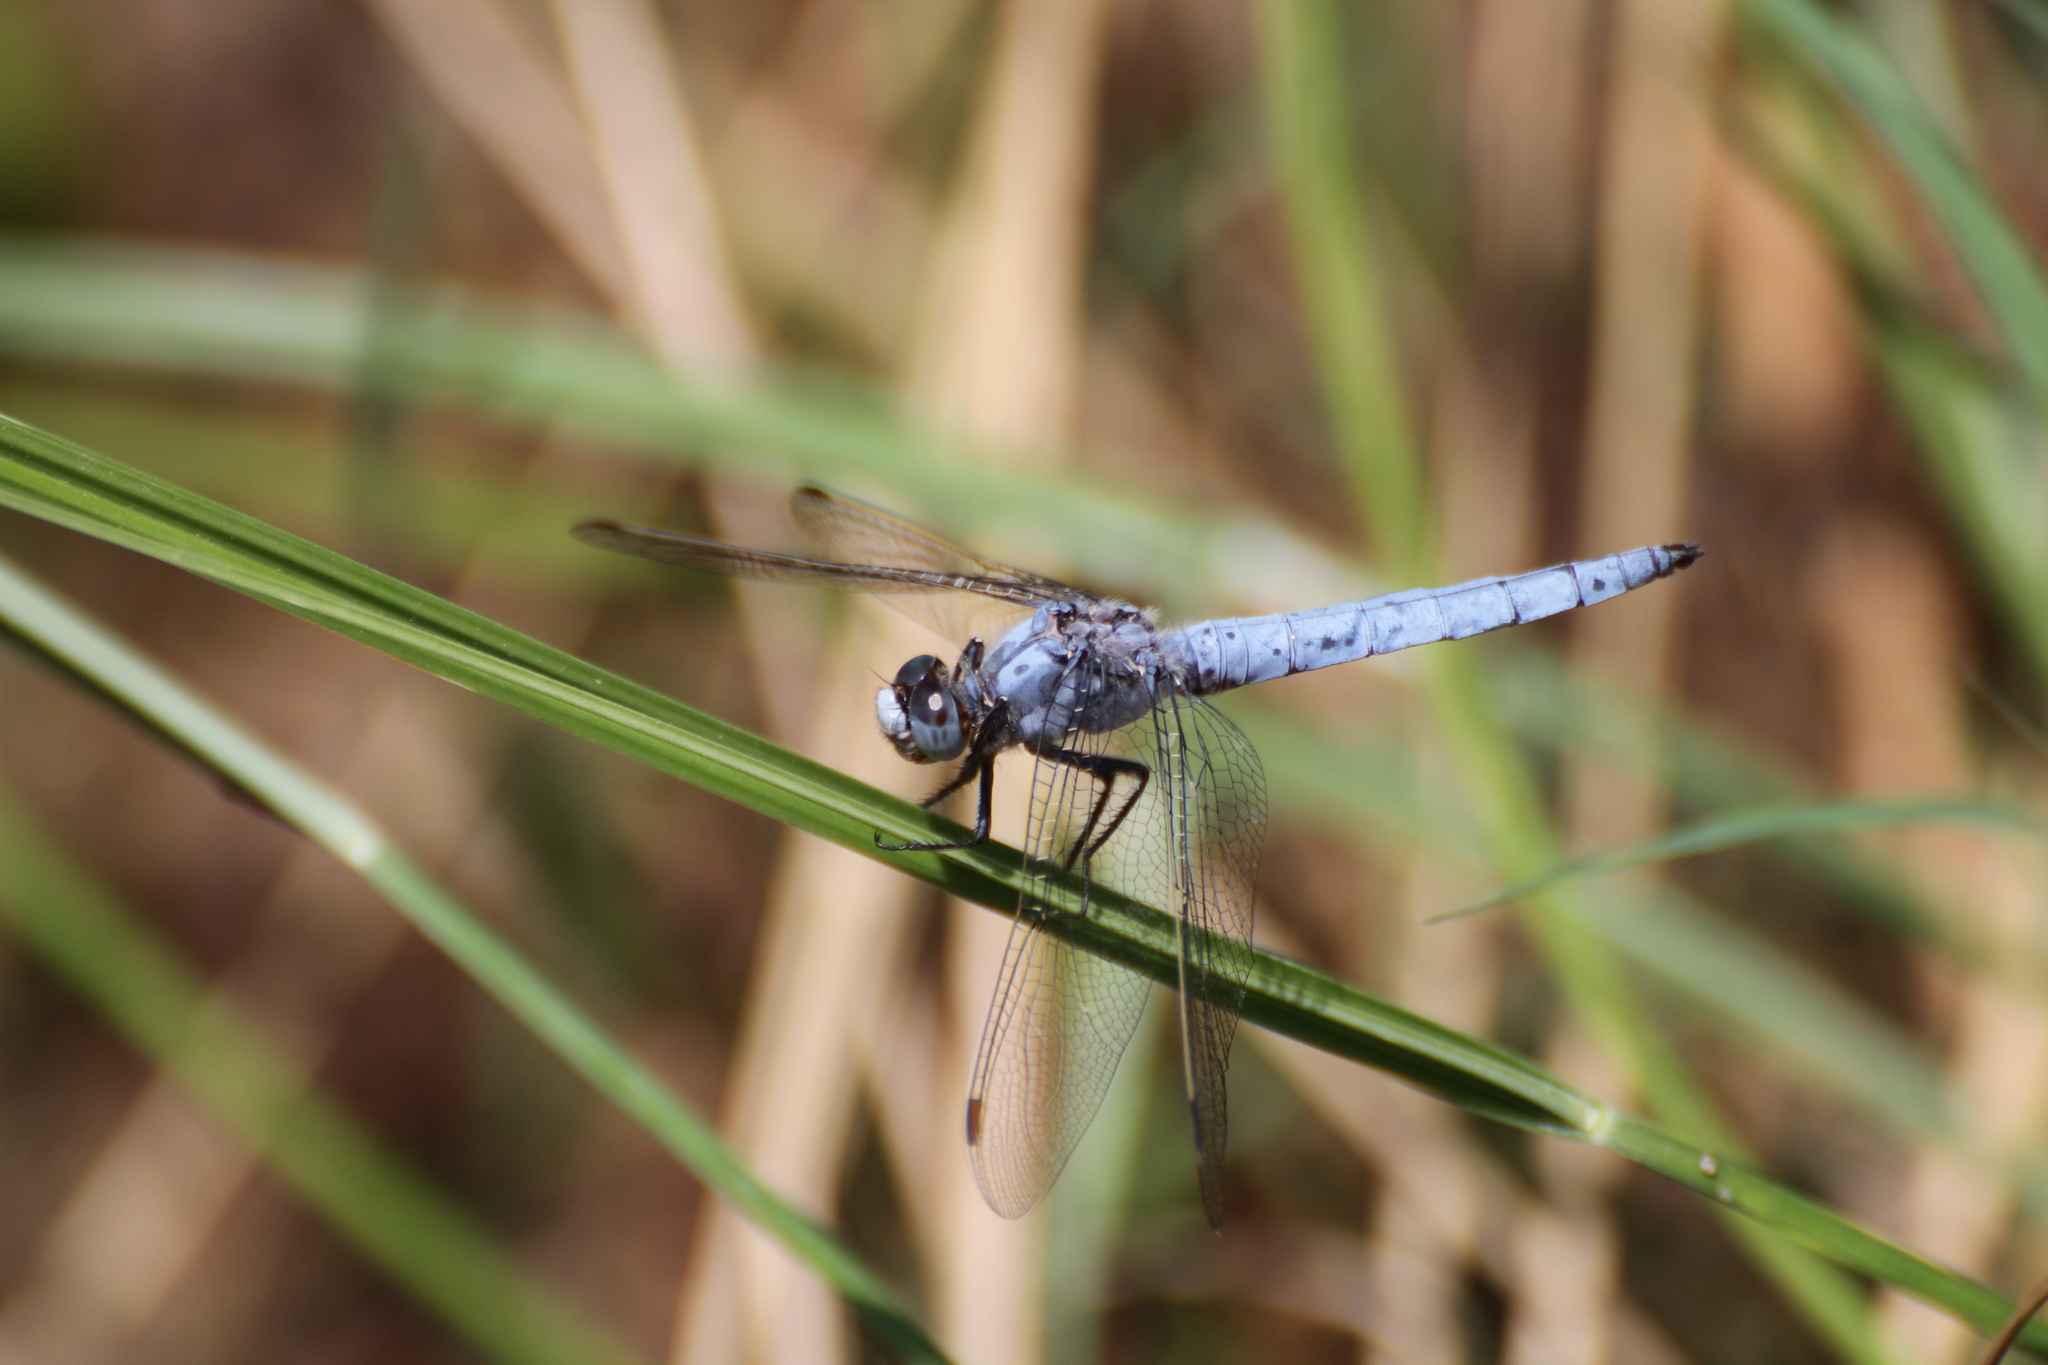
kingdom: Animalia
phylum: Arthropoda
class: Insecta
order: Odonata
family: Libellulidae
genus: Orthetrum
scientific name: Orthetrum brunneum
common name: Southern skimmer
